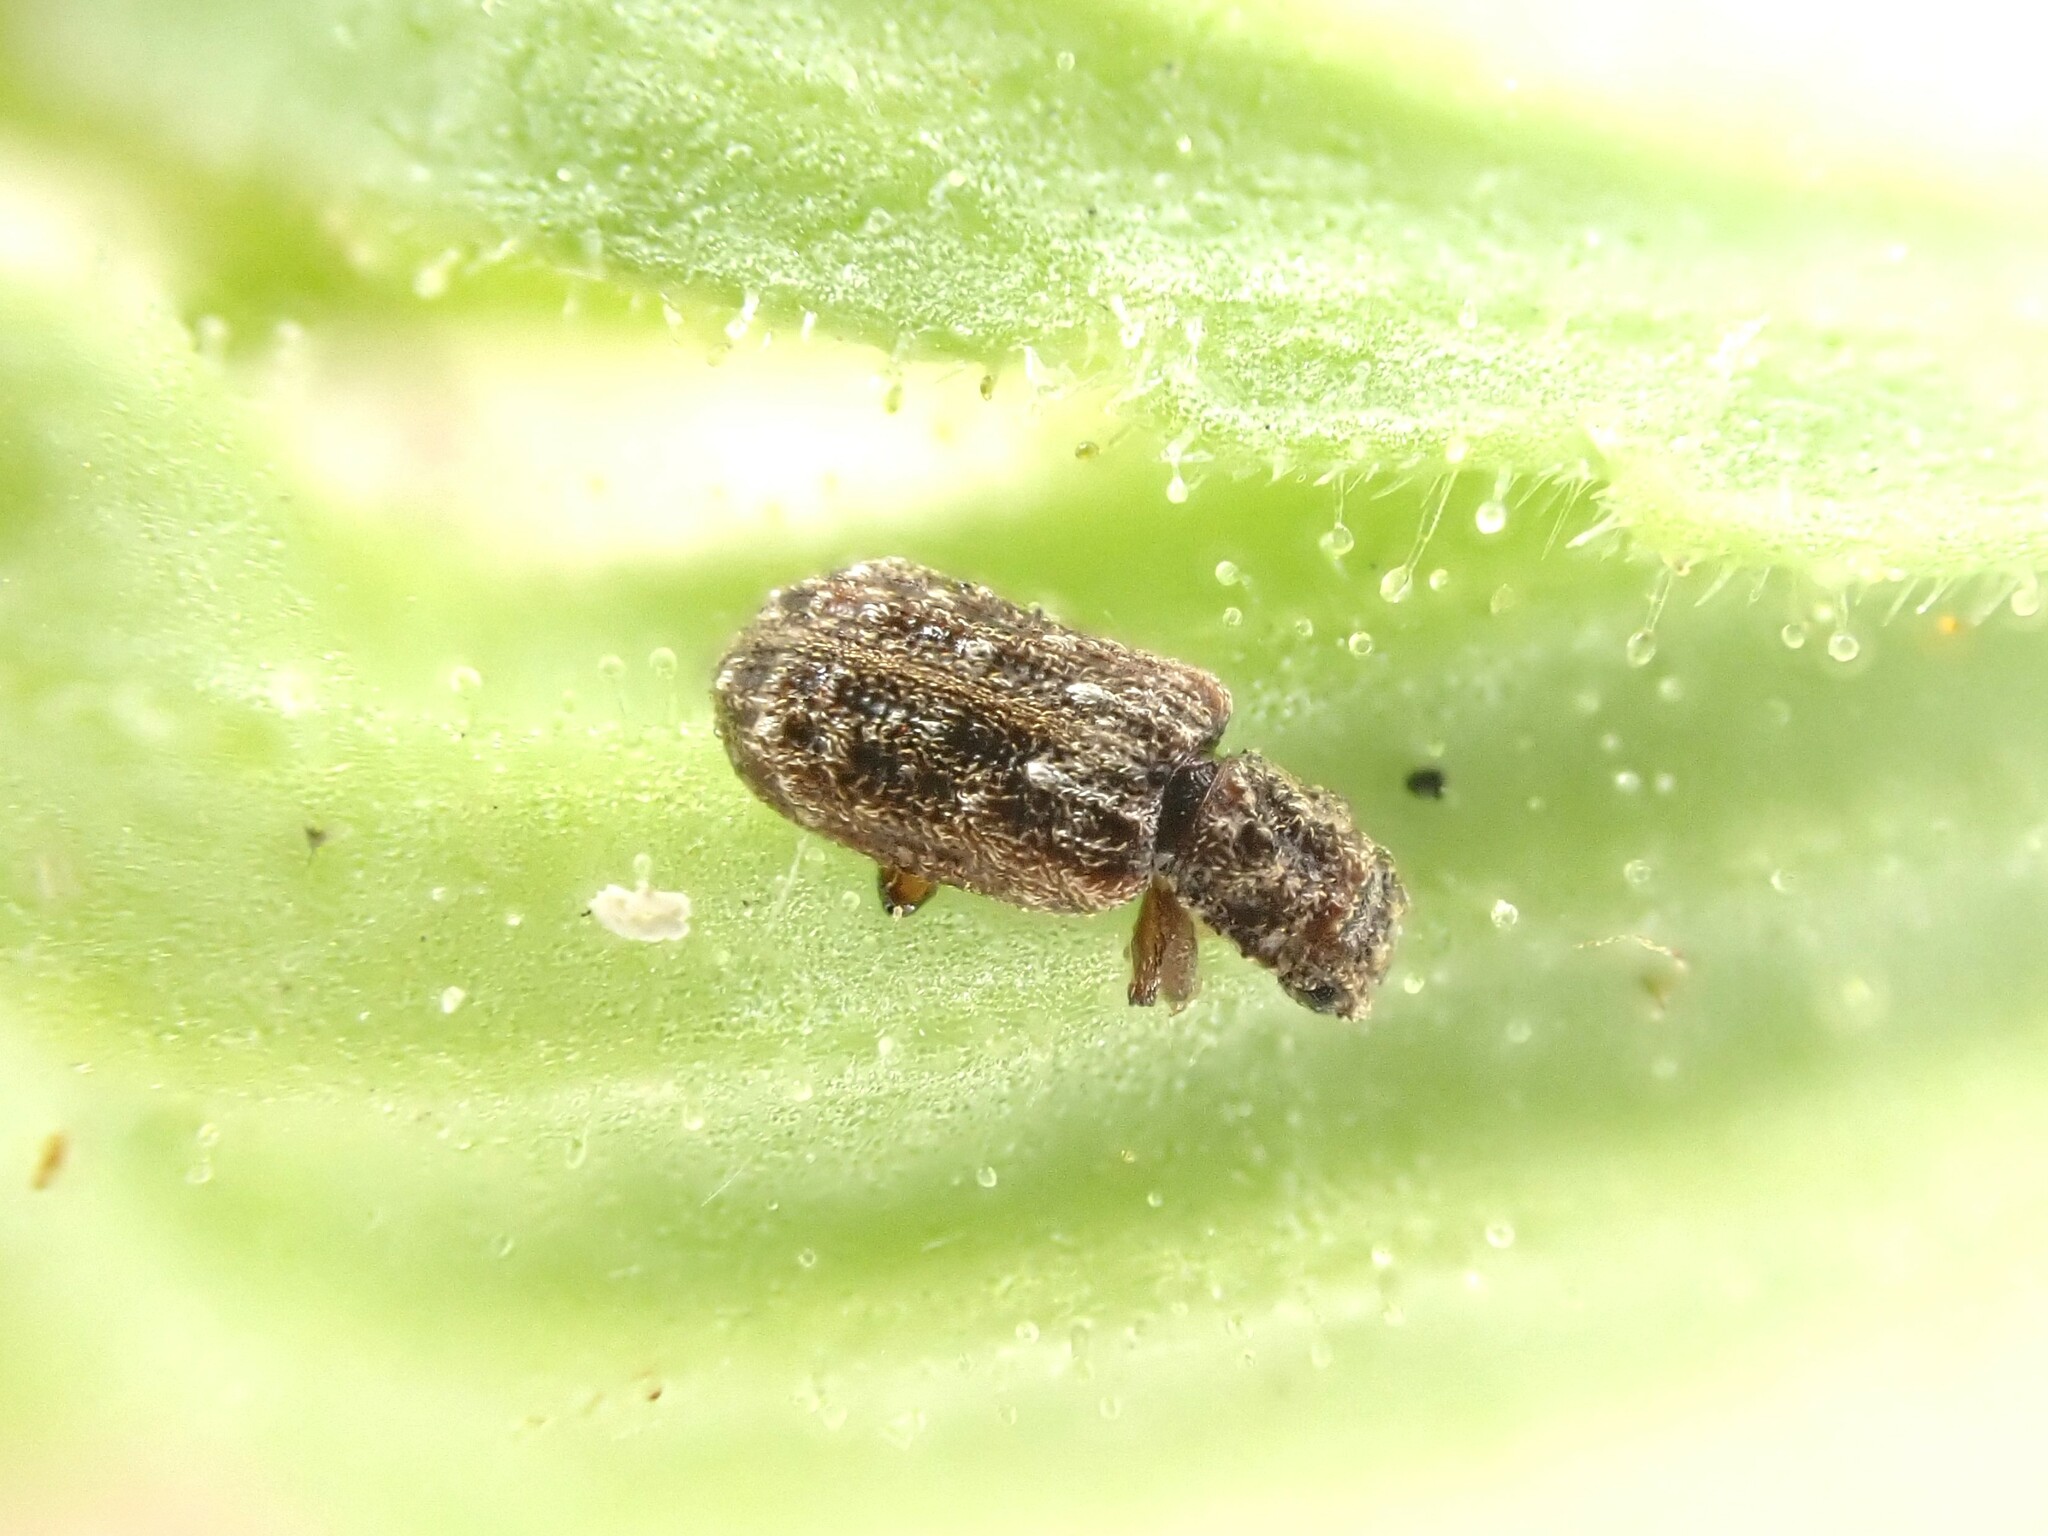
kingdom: Animalia
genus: Zebitoma
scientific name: Zebitoma
